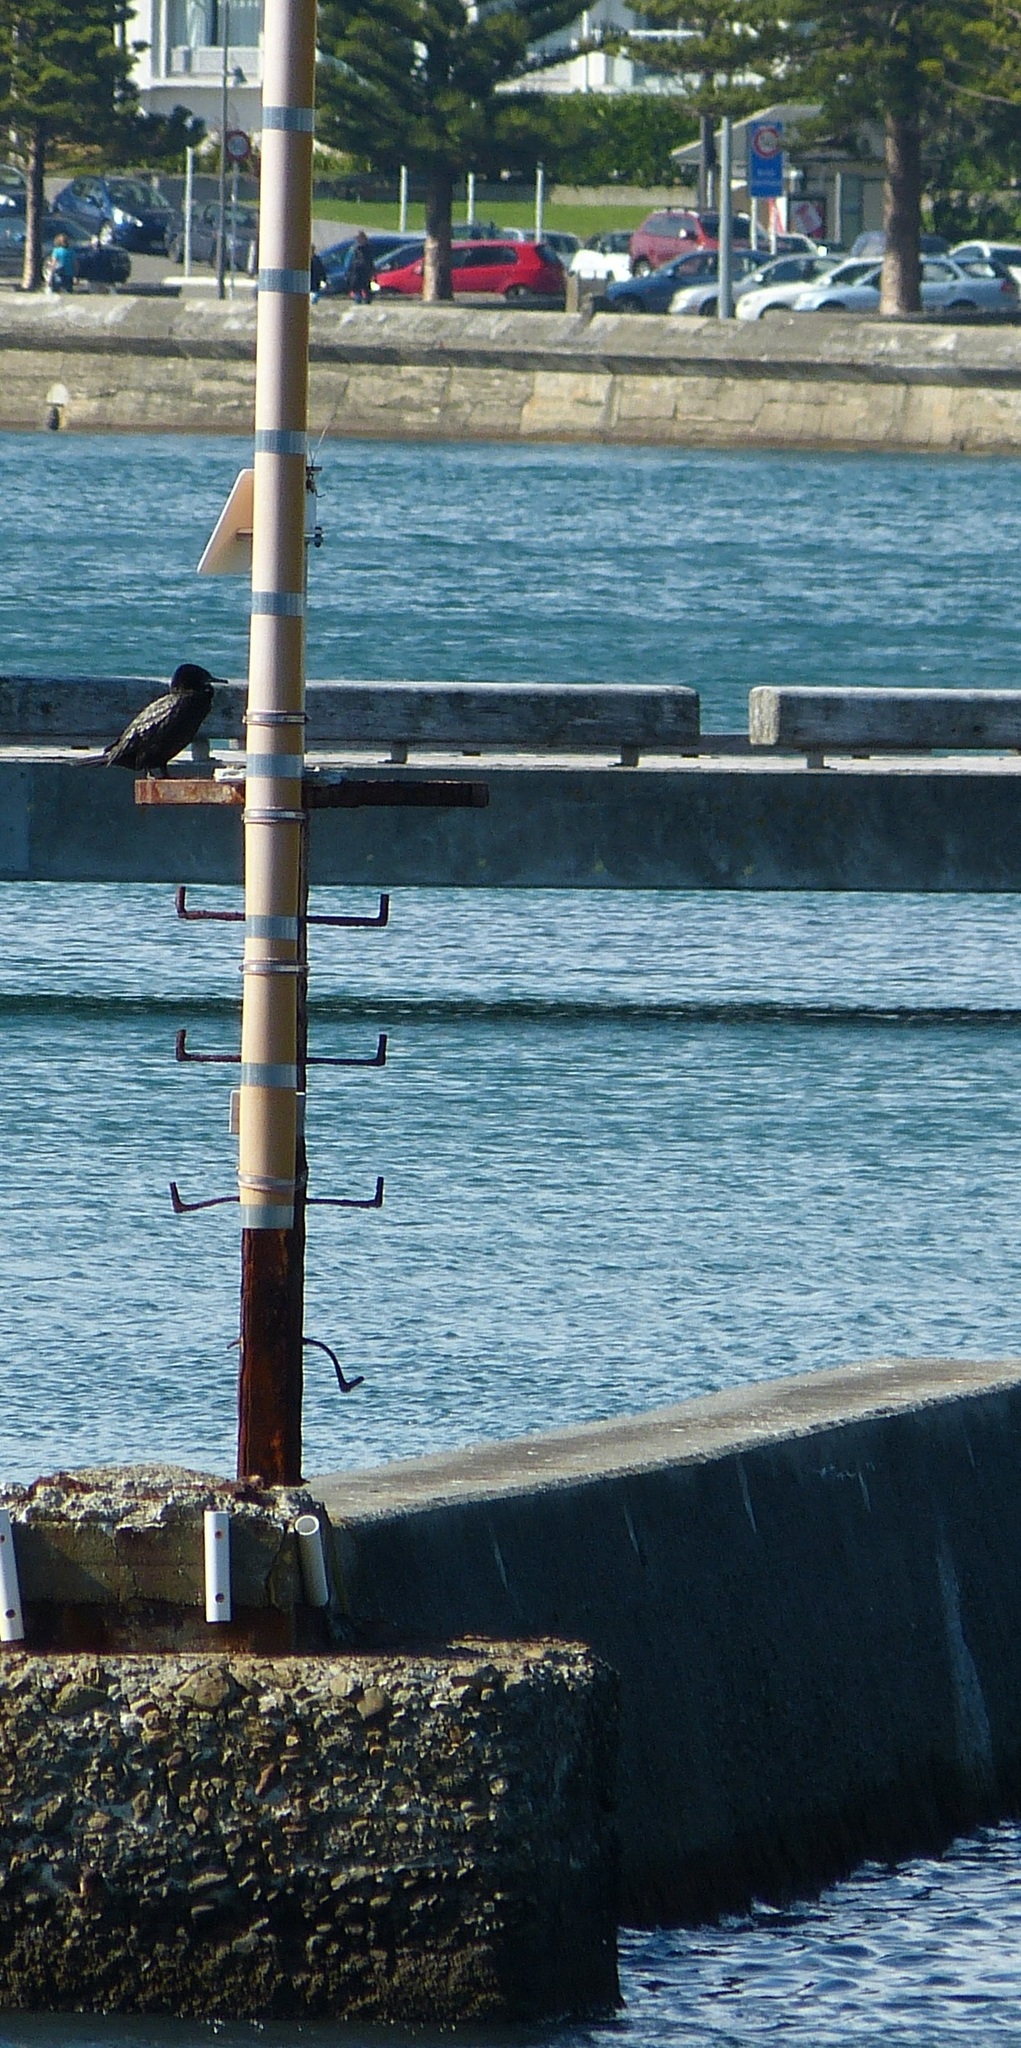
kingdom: Animalia
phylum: Chordata
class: Aves
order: Suliformes
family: Phalacrocoracidae
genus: Phalacrocorax
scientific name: Phalacrocorax sulcirostris
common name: Little black cormorant
